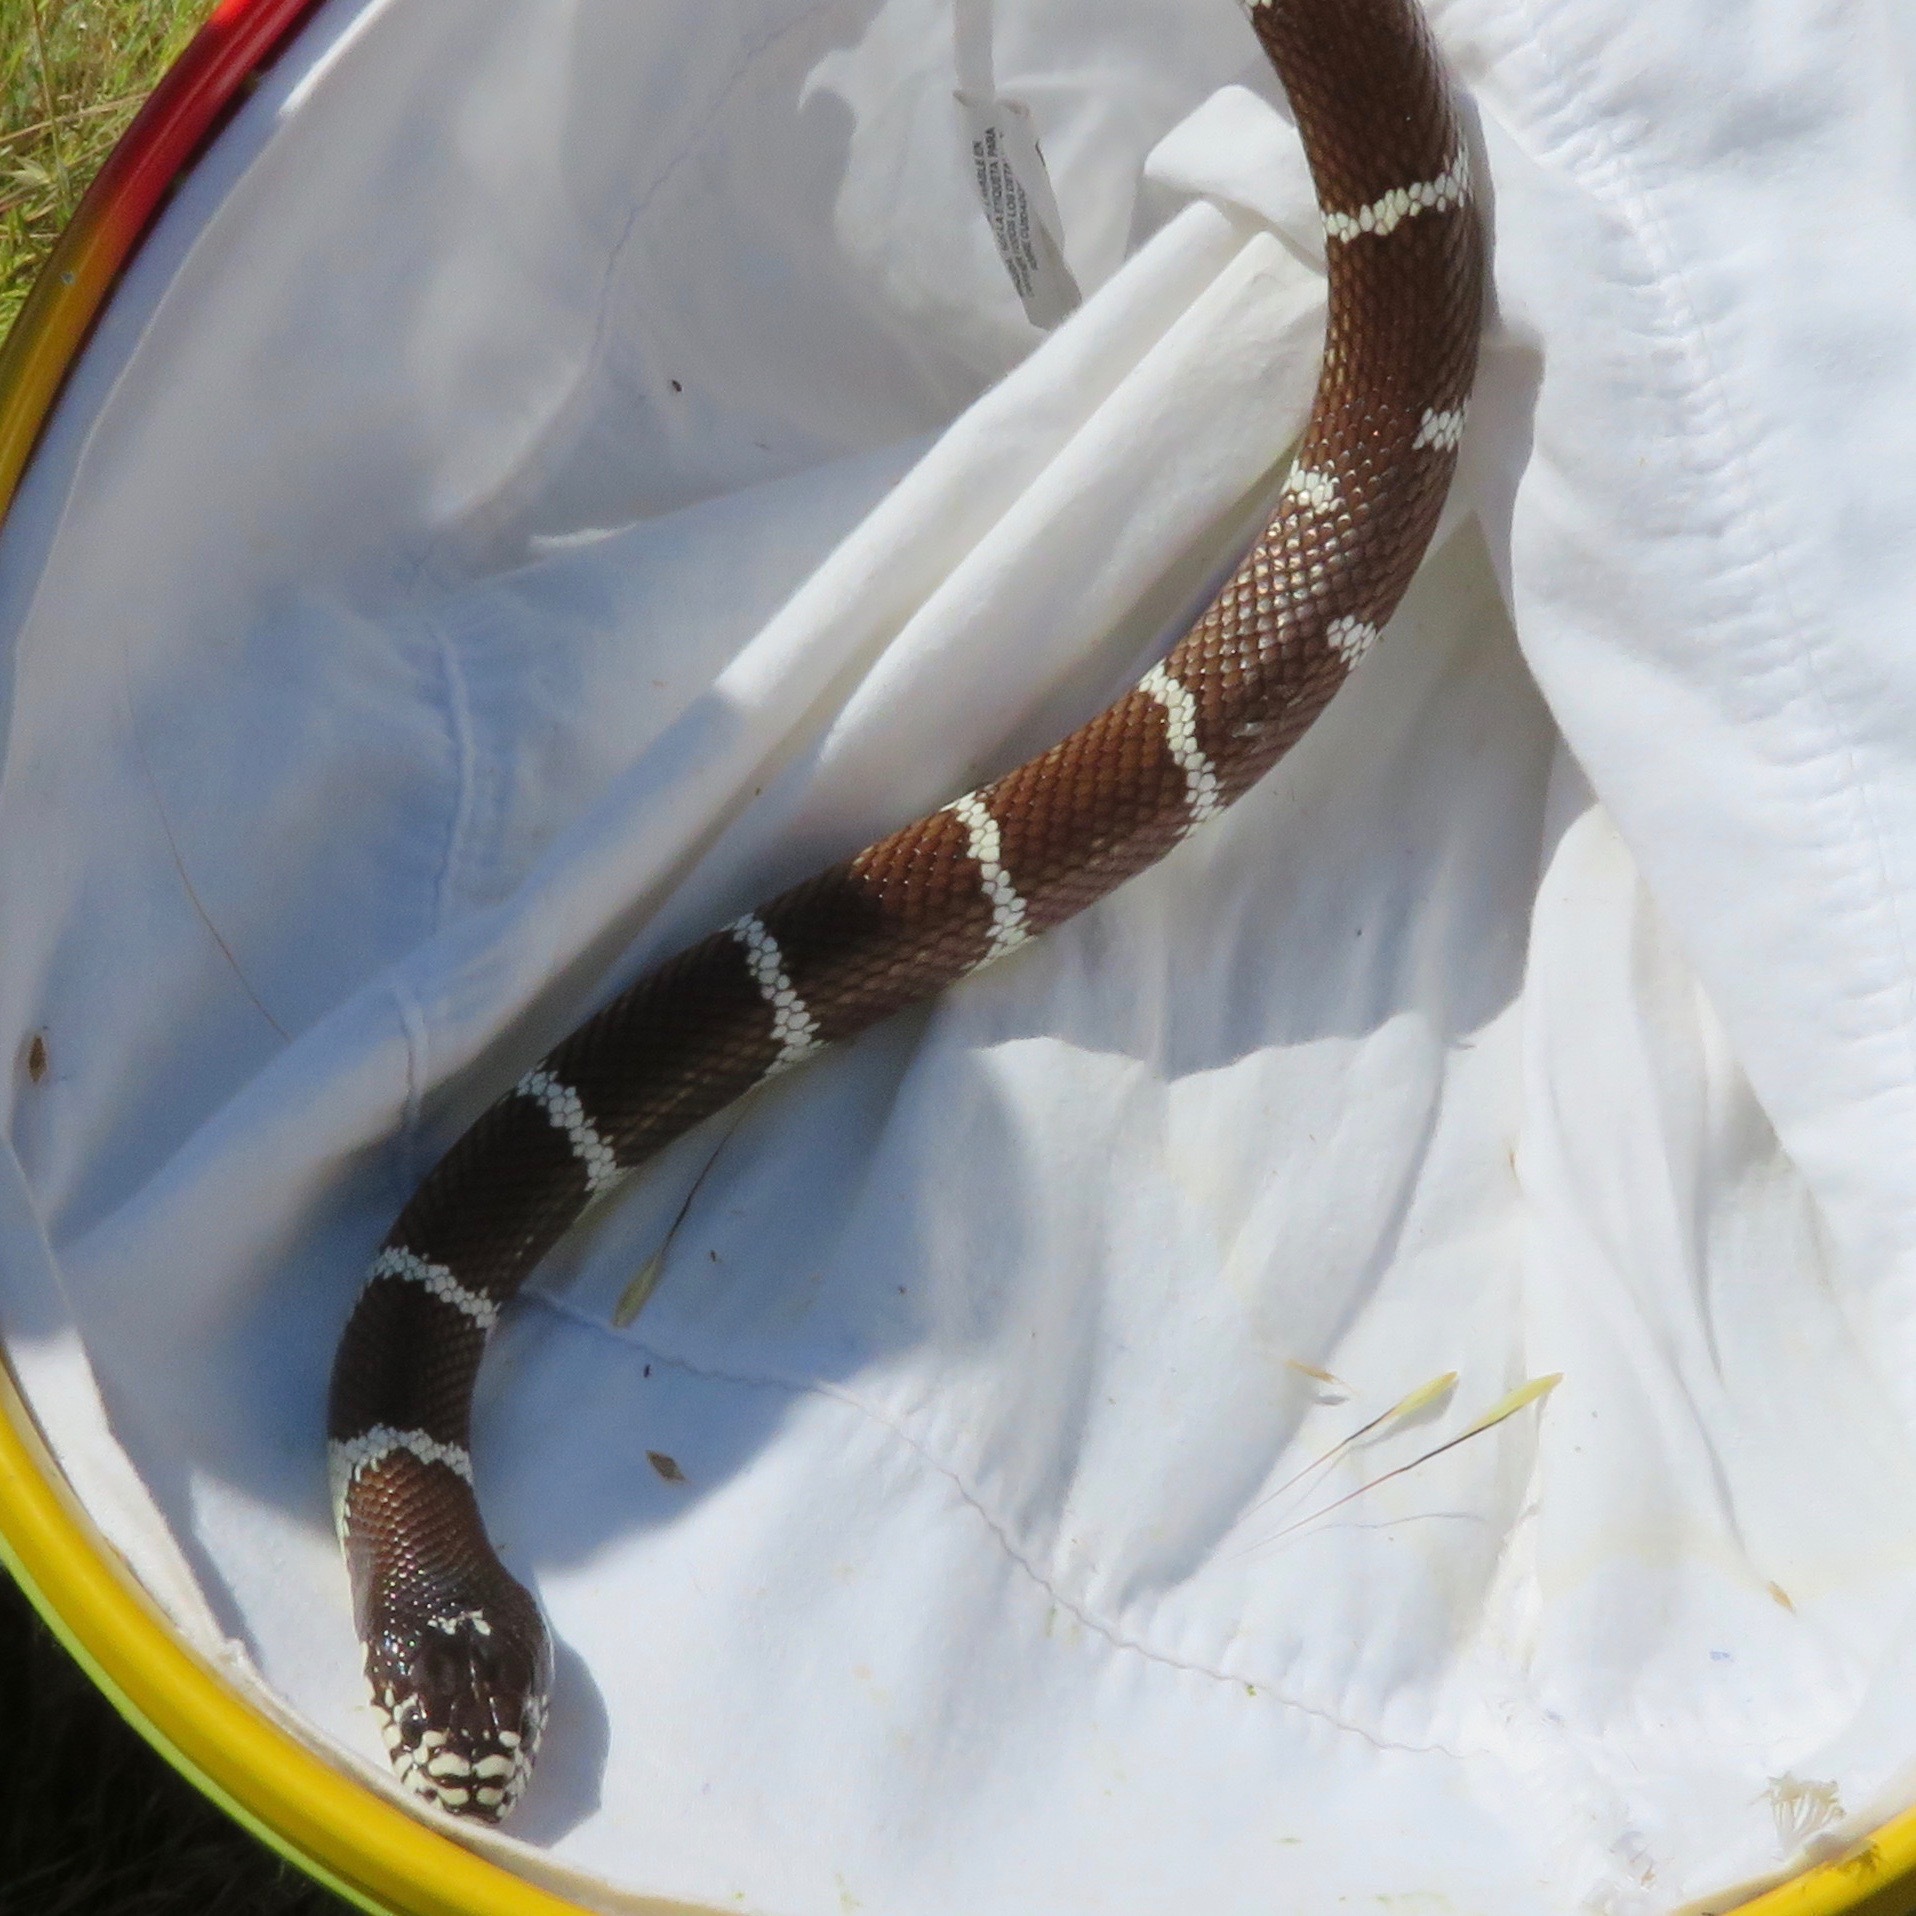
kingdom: Animalia
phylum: Chordata
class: Squamata
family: Colubridae
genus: Lampropeltis
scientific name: Lampropeltis californiae
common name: California kingsnake
